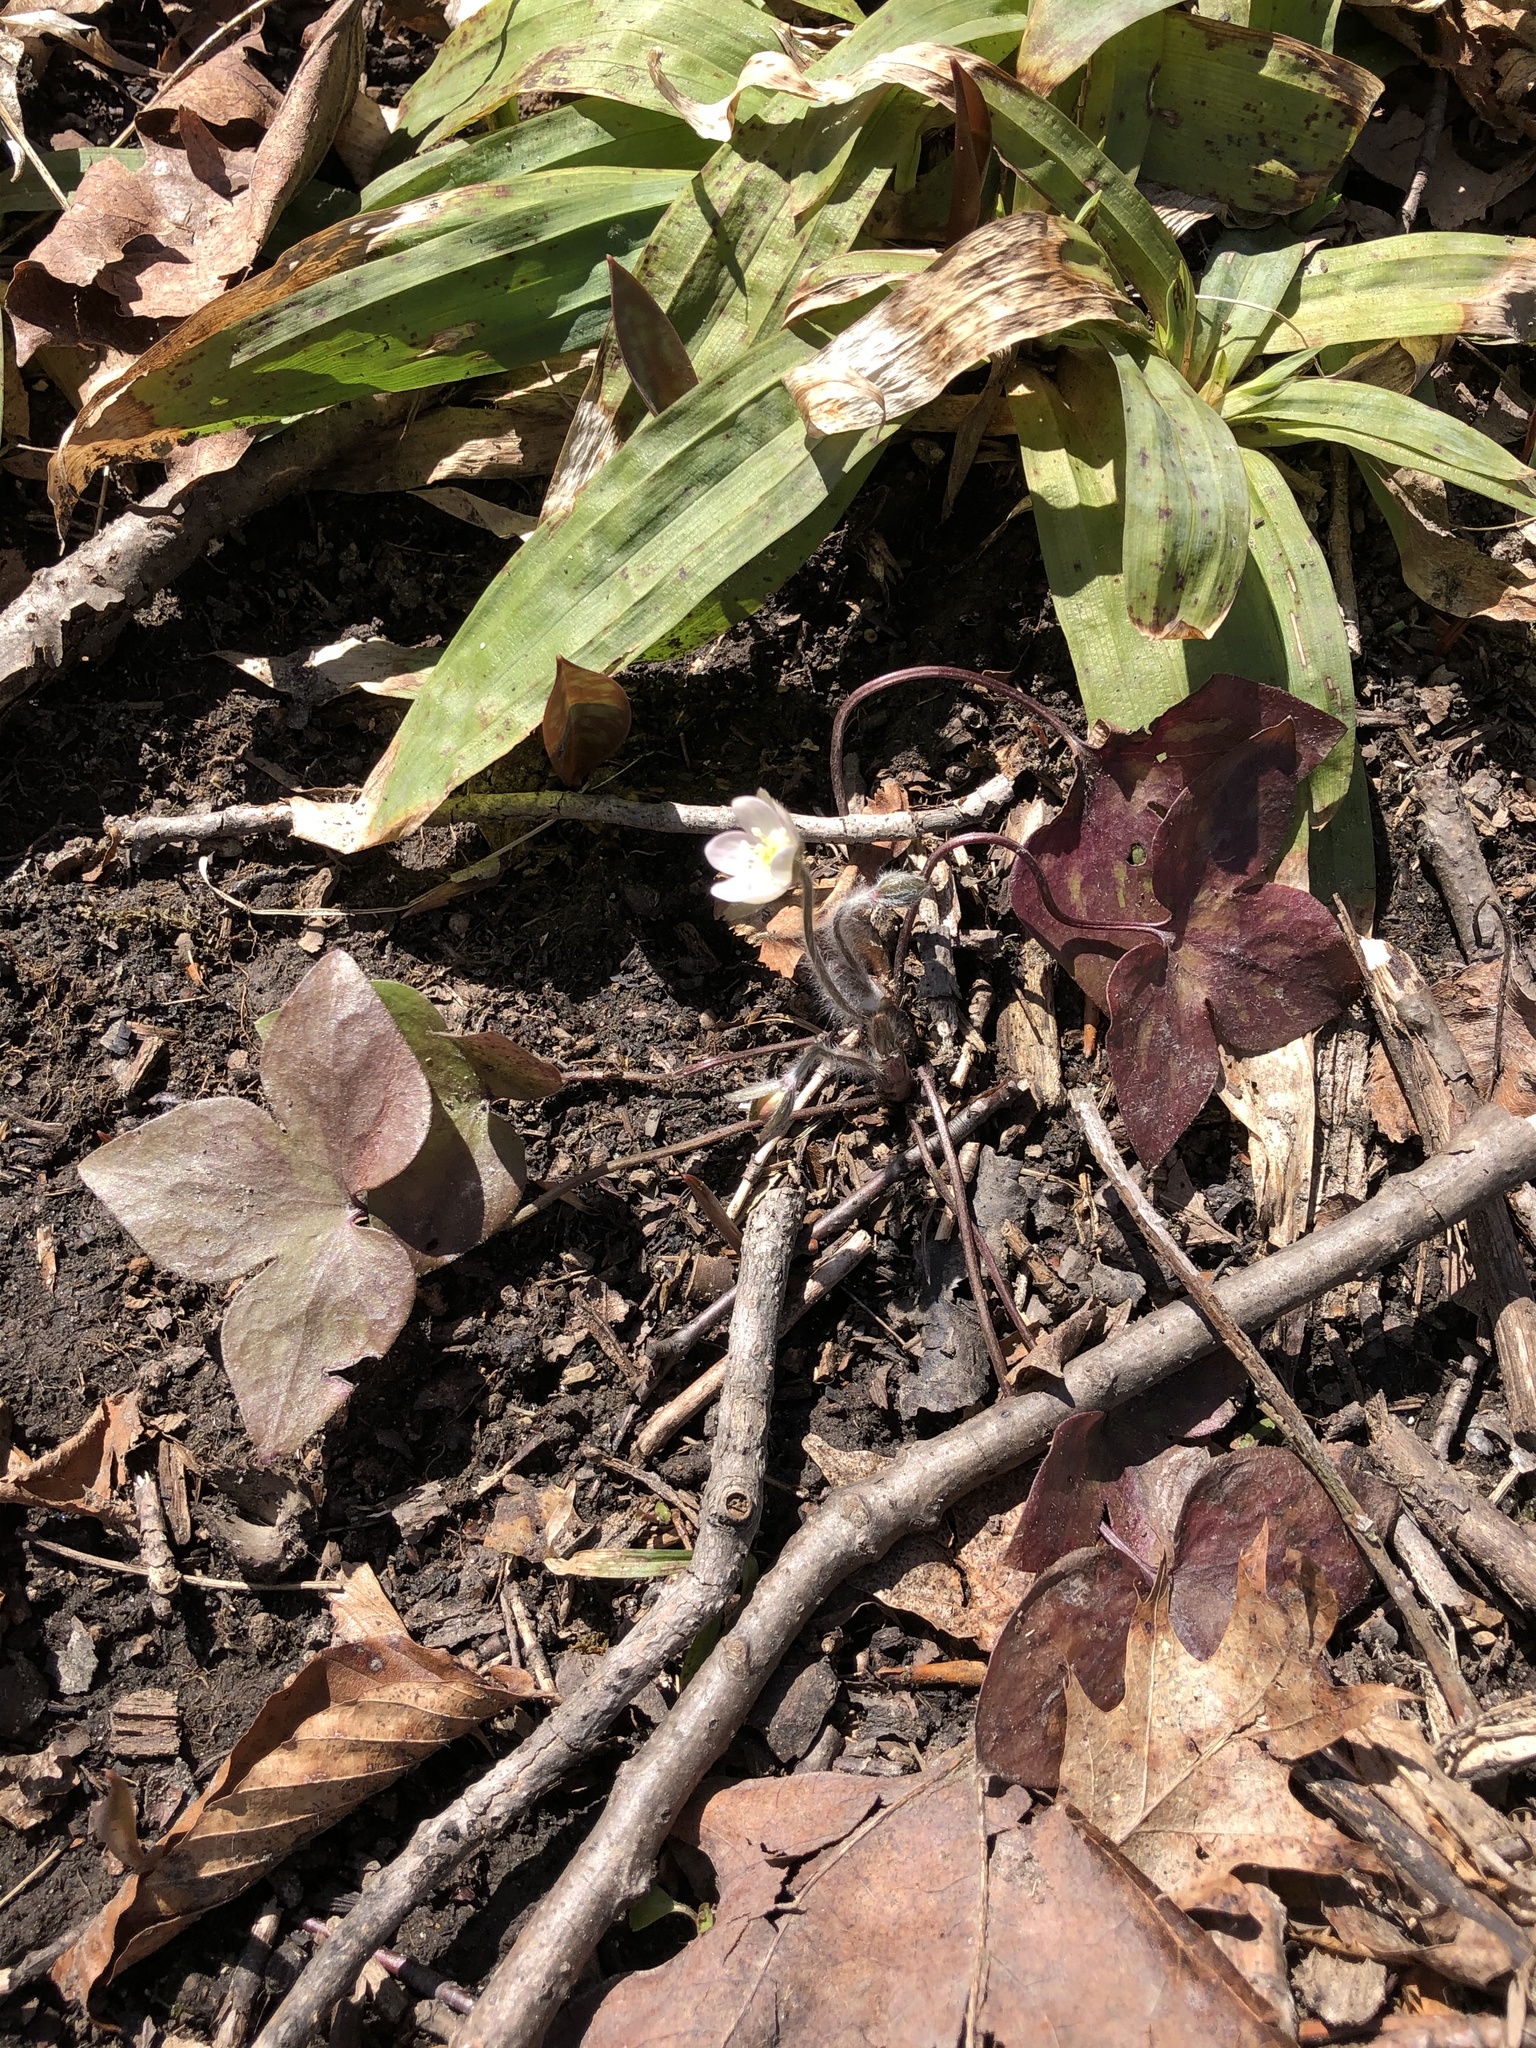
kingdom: Plantae
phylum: Tracheophyta
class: Magnoliopsida
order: Ranunculales
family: Ranunculaceae
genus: Hepatica
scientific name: Hepatica acutiloba
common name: Sharp-lobed hepatica
